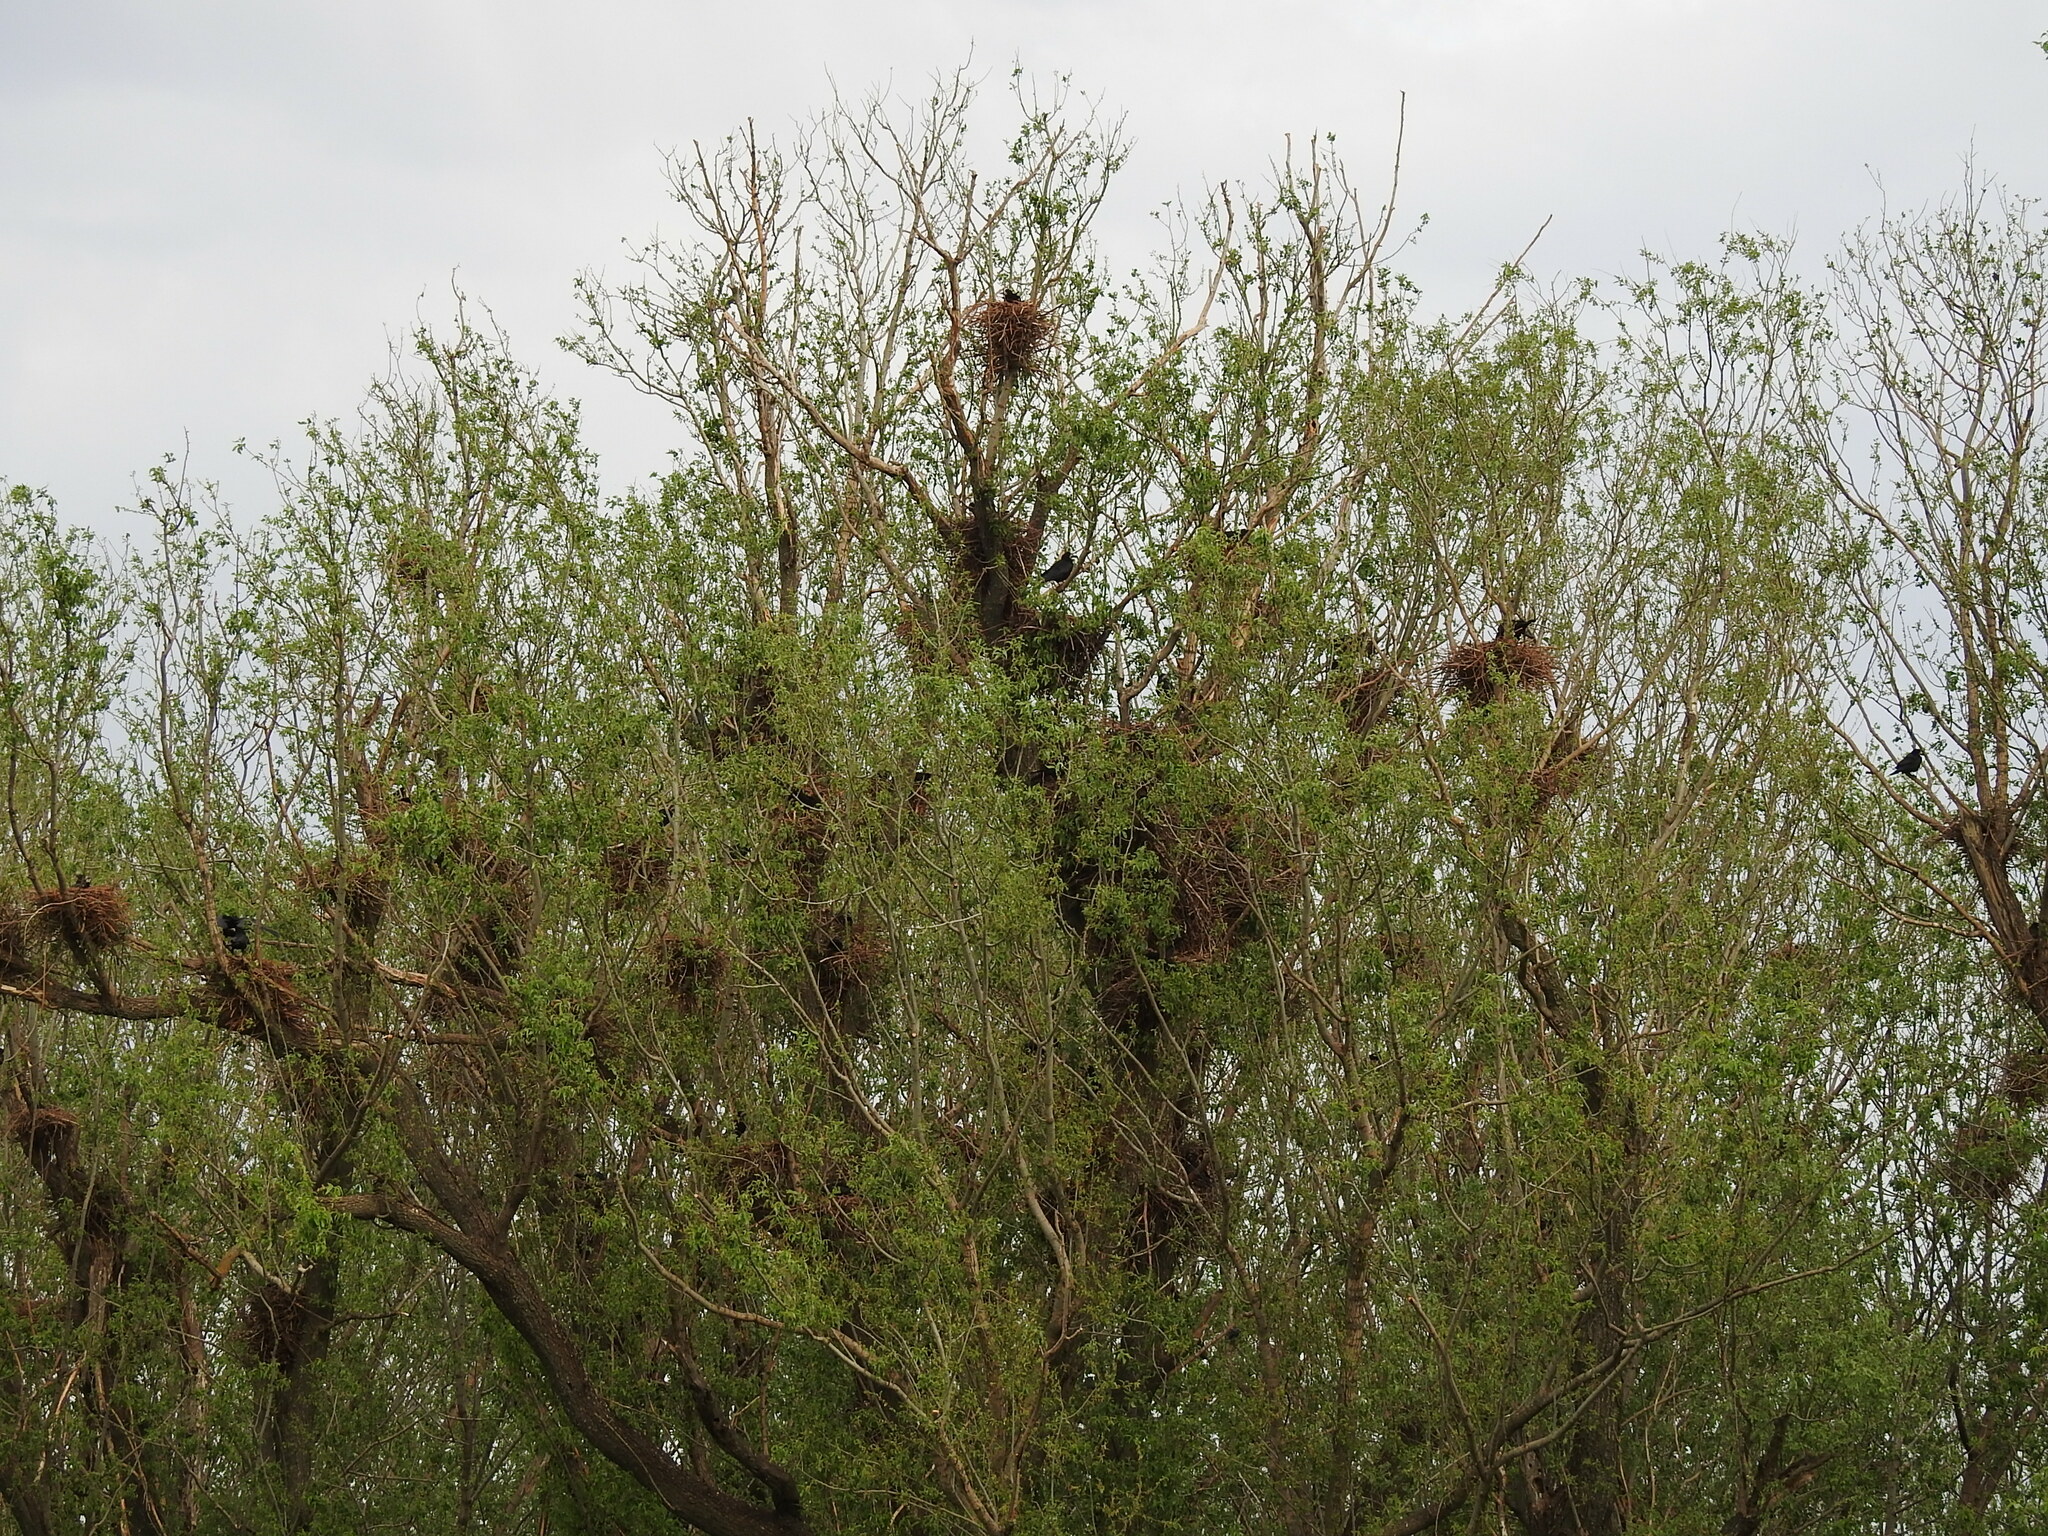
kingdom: Animalia
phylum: Chordata
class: Aves
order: Passeriformes
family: Corvidae
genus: Corvus
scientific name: Corvus frugilegus
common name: Rook
